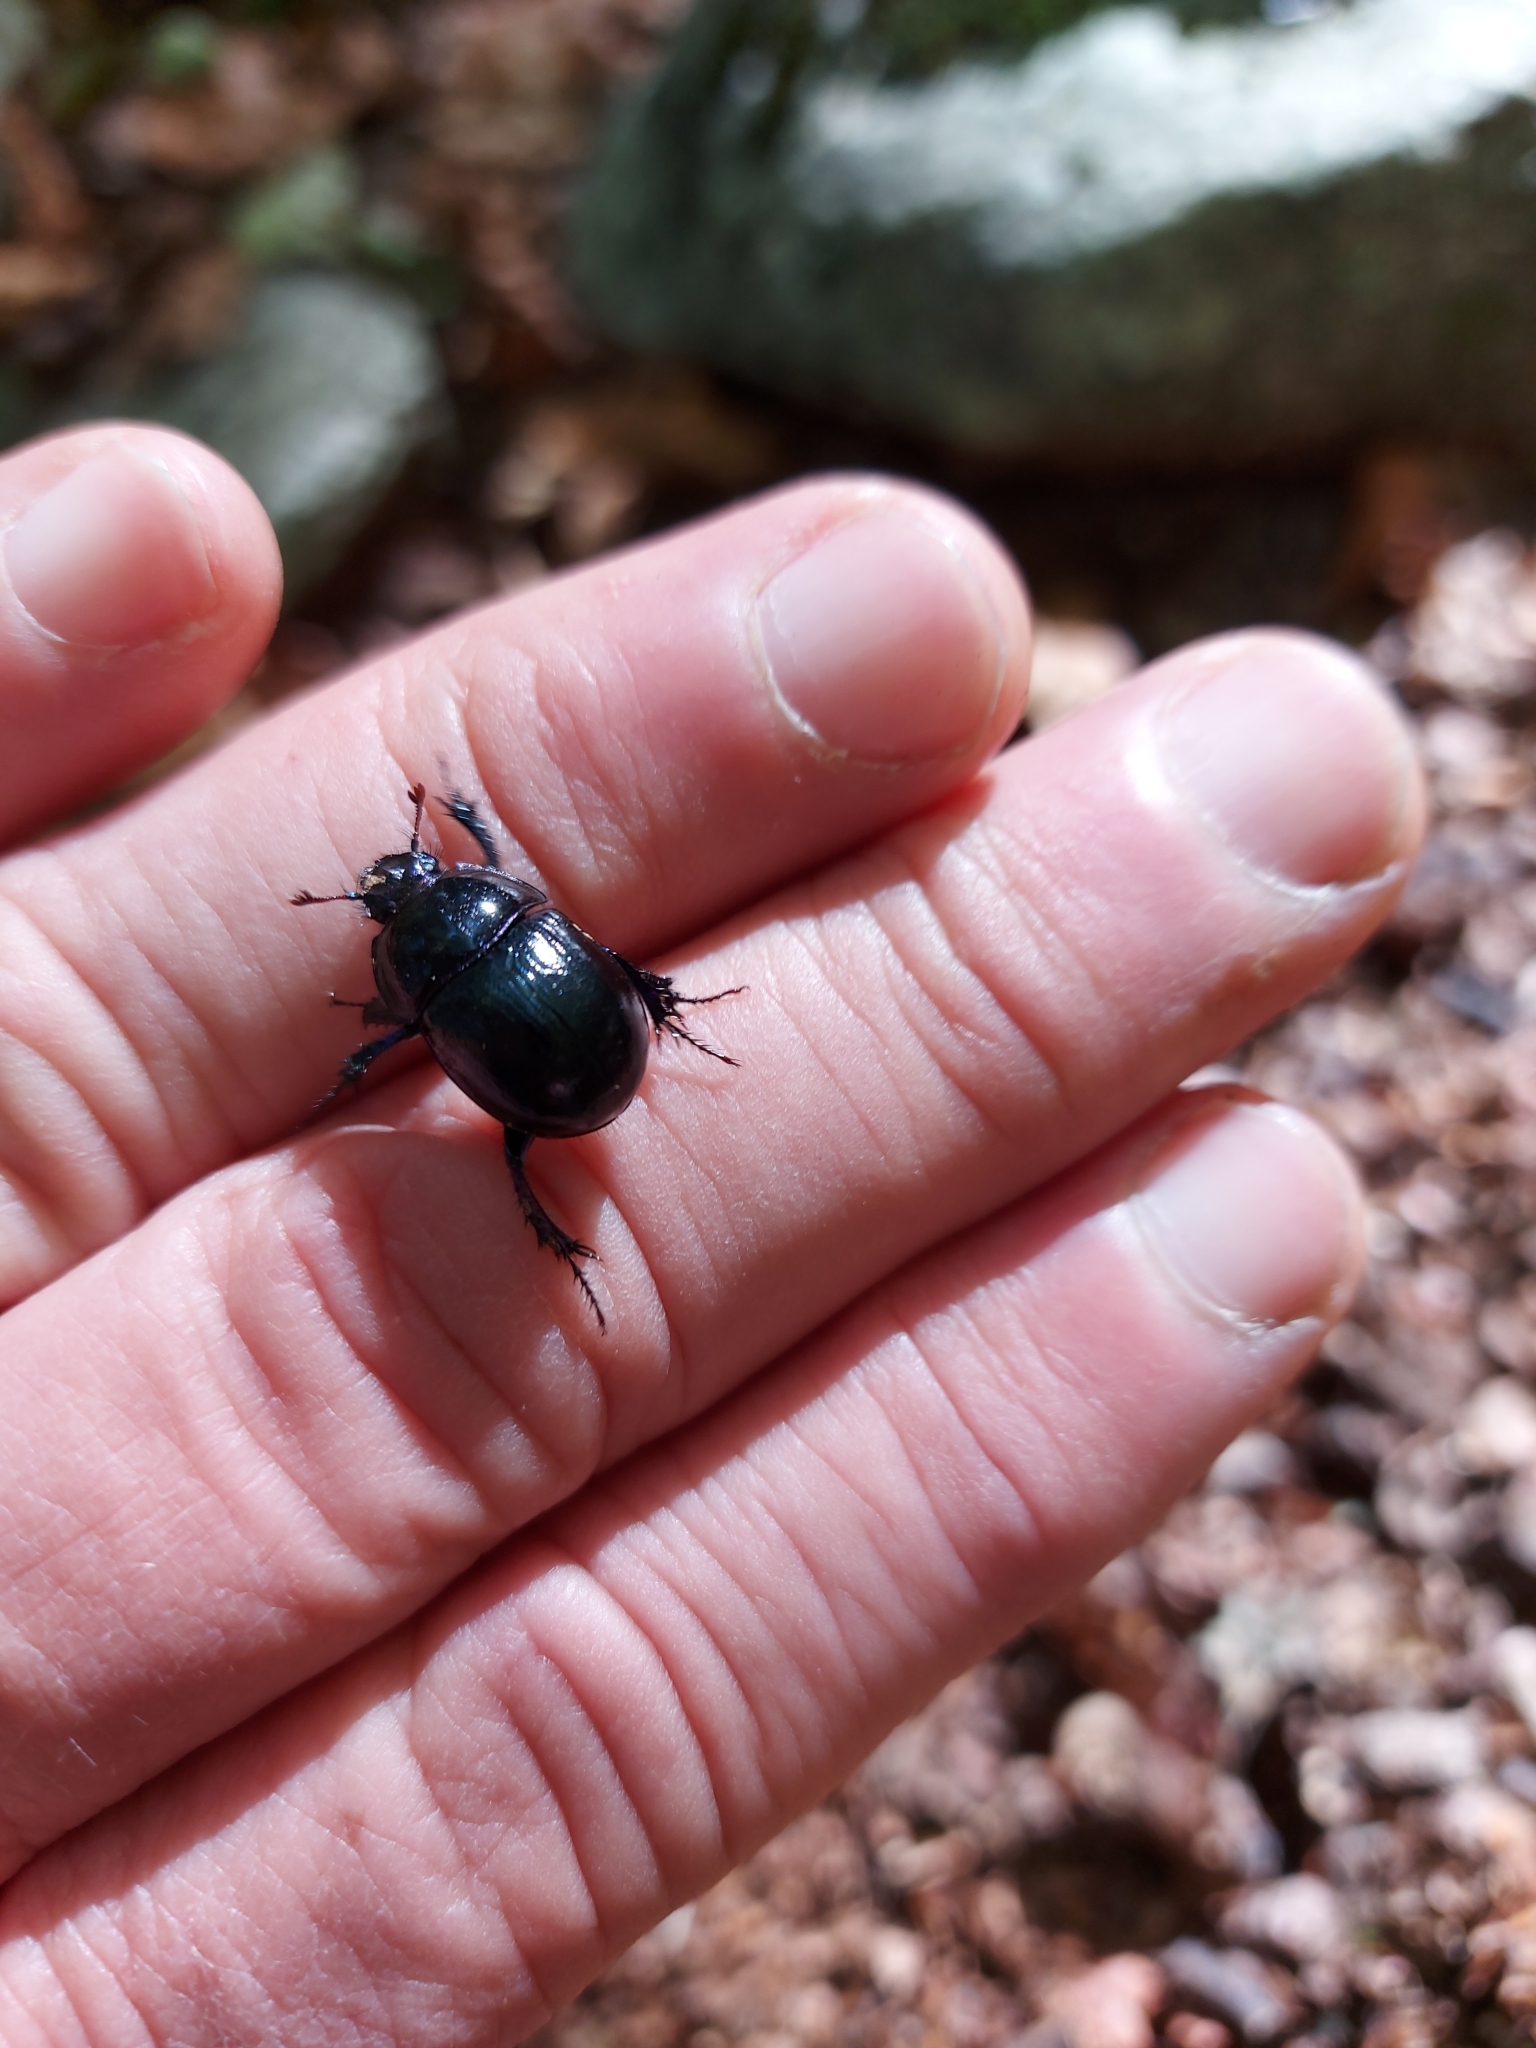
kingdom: Animalia
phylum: Arthropoda
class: Insecta
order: Coleoptera
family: Geotrupidae
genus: Anoplotrupes
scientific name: Anoplotrupes stercorosus
